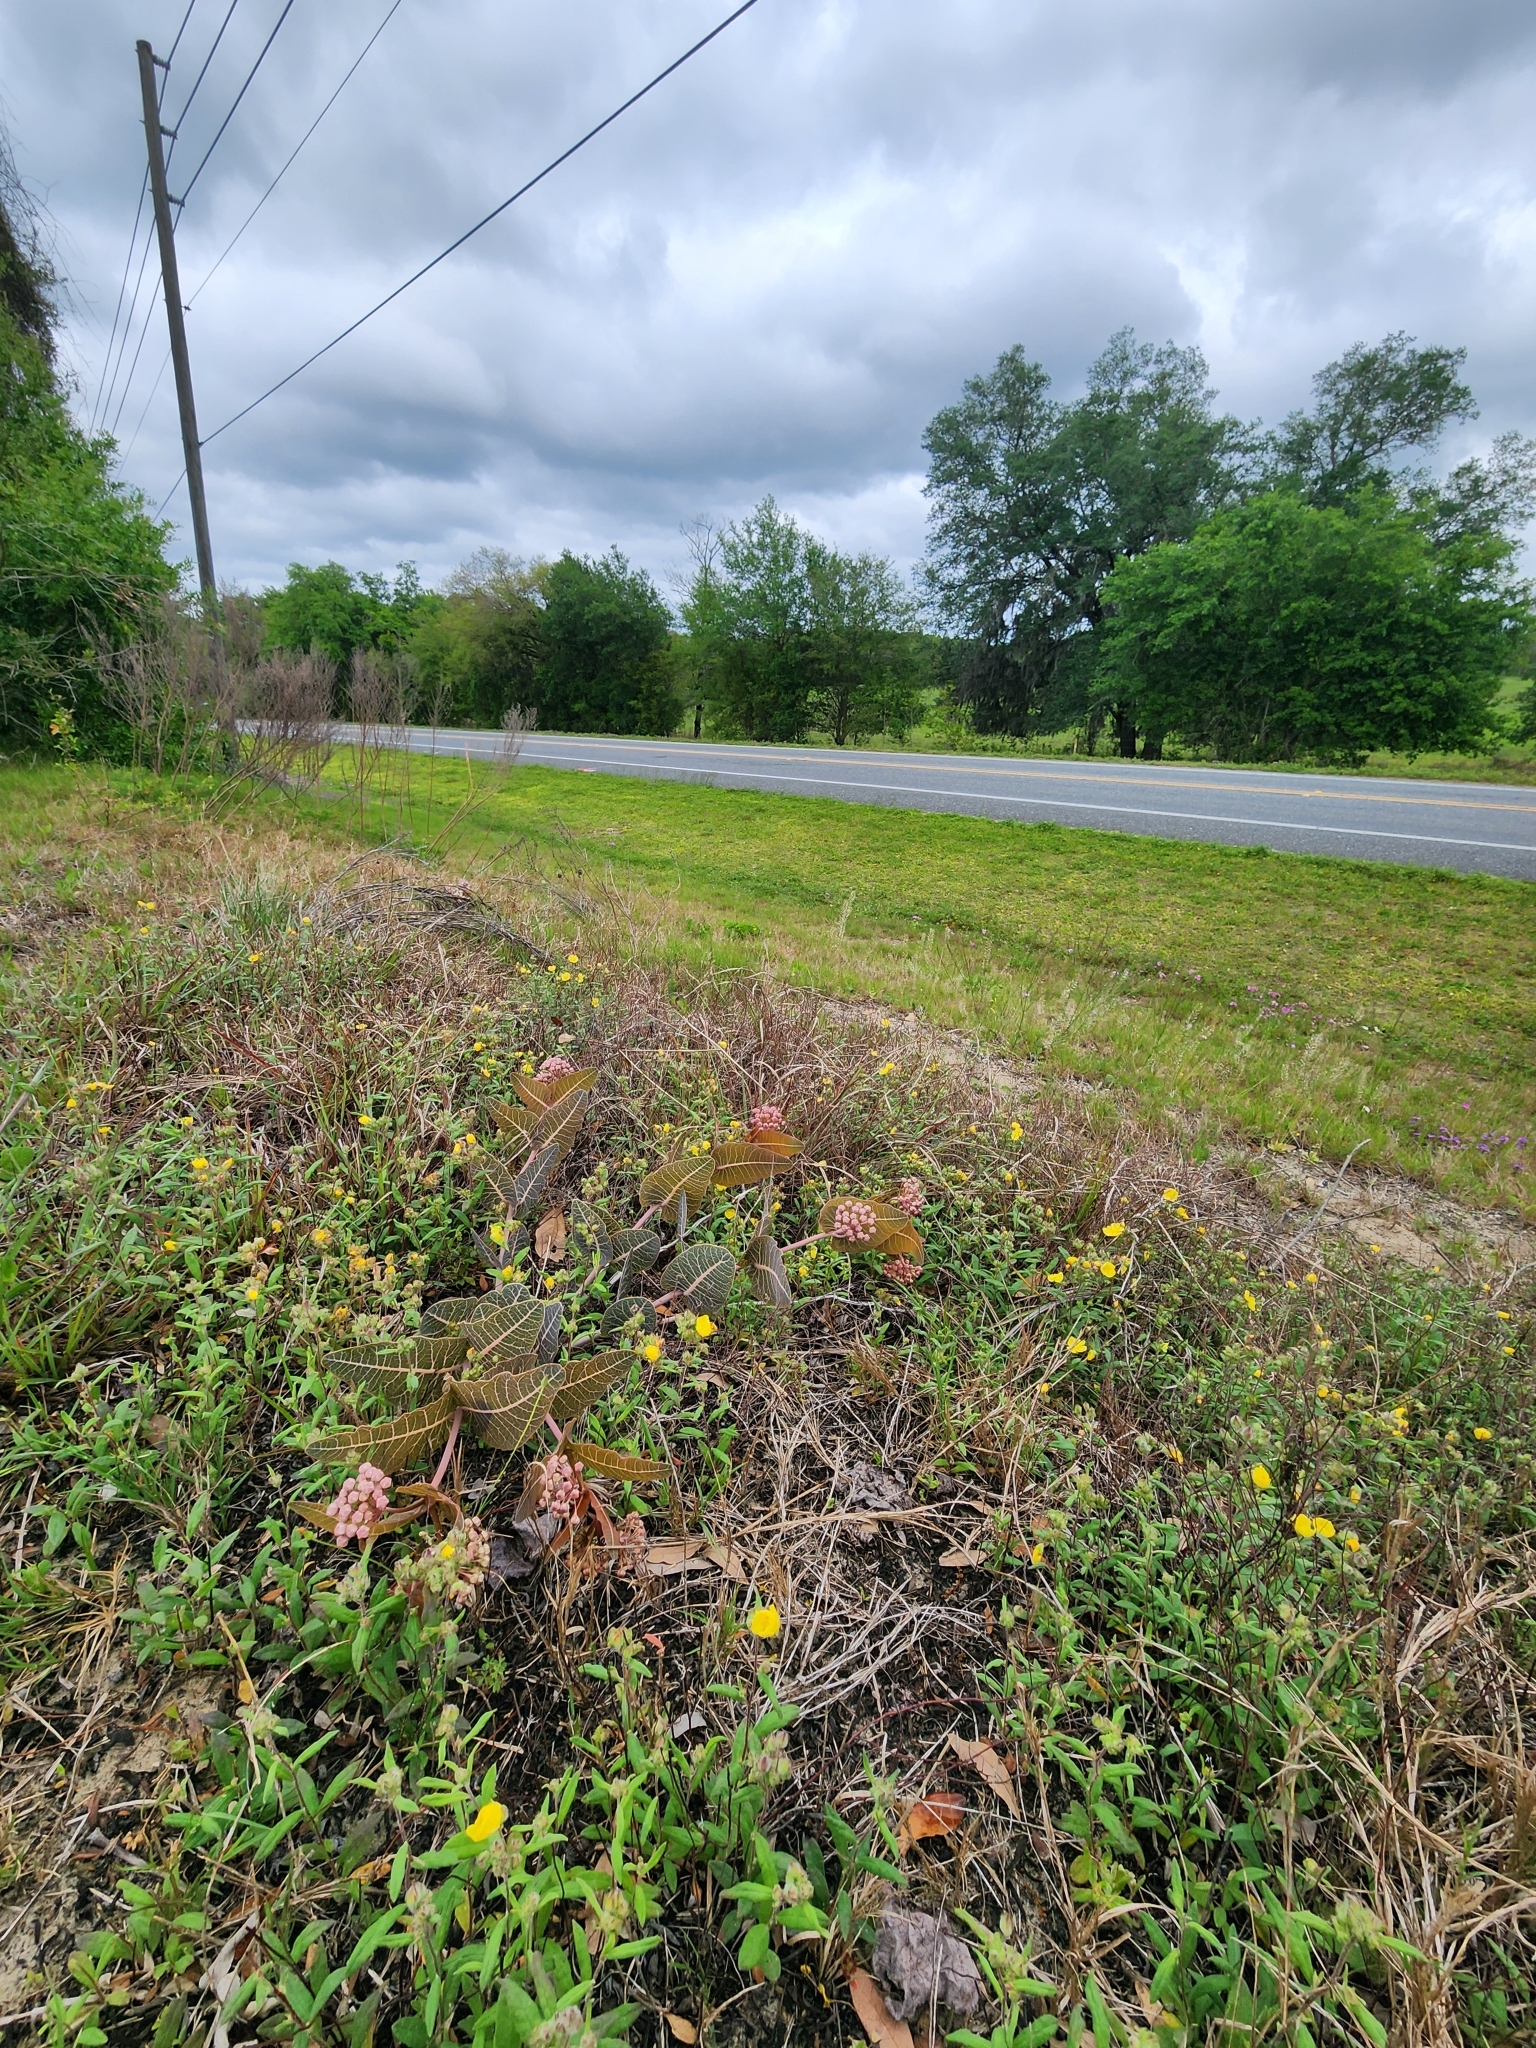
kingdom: Plantae
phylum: Tracheophyta
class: Magnoliopsida
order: Gentianales
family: Apocynaceae
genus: Asclepias
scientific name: Asclepias humistrata
